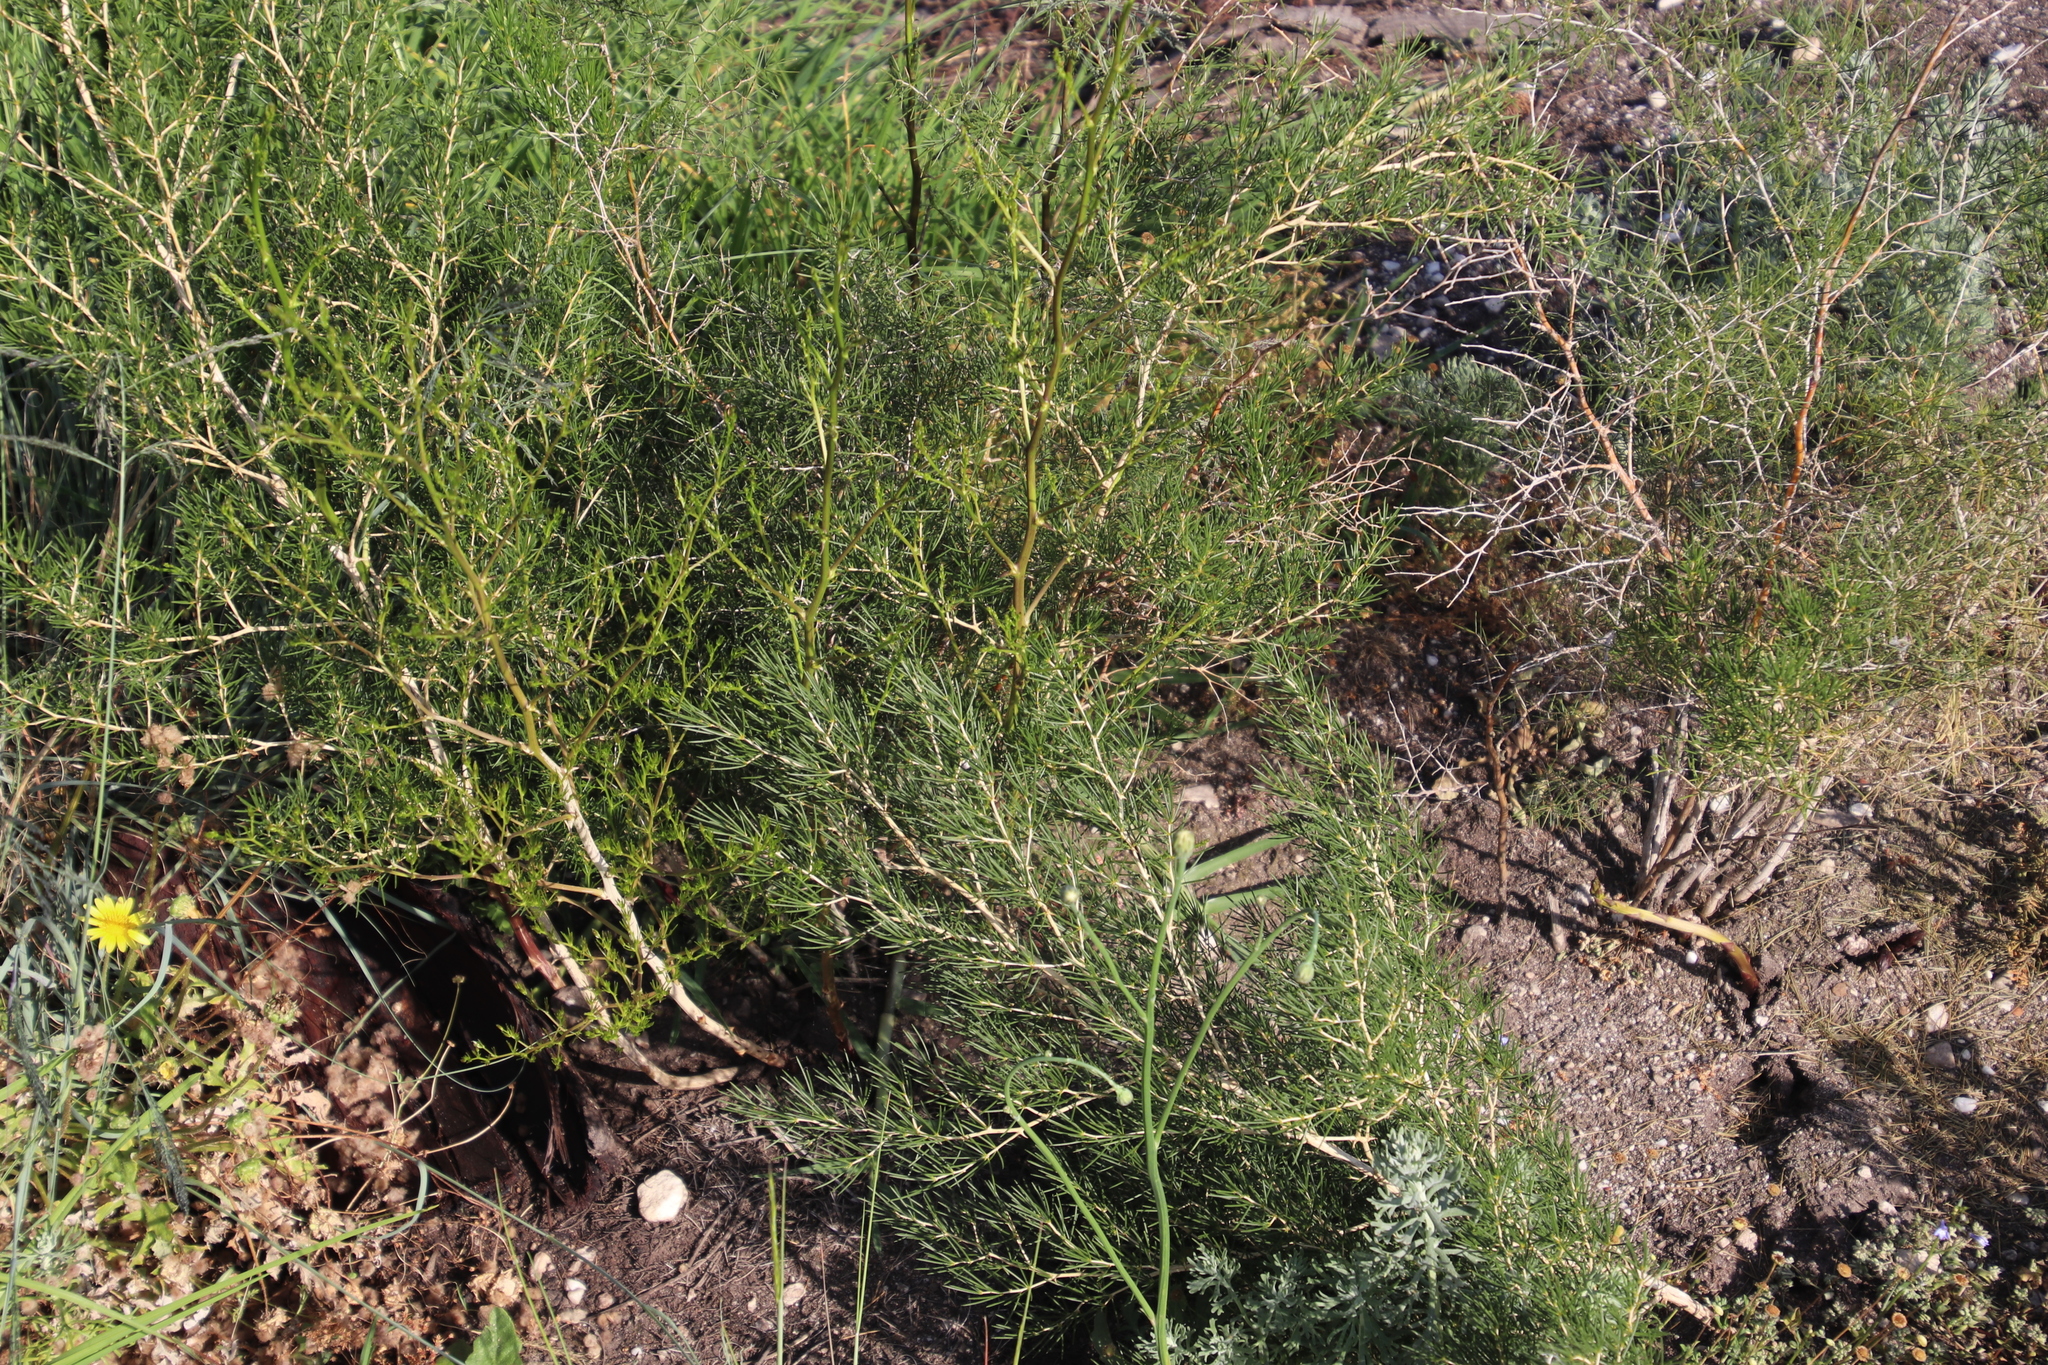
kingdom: Plantae
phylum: Tracheophyta
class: Liliopsida
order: Asparagales
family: Asparagaceae
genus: Asparagus
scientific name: Asparagus lignosus
